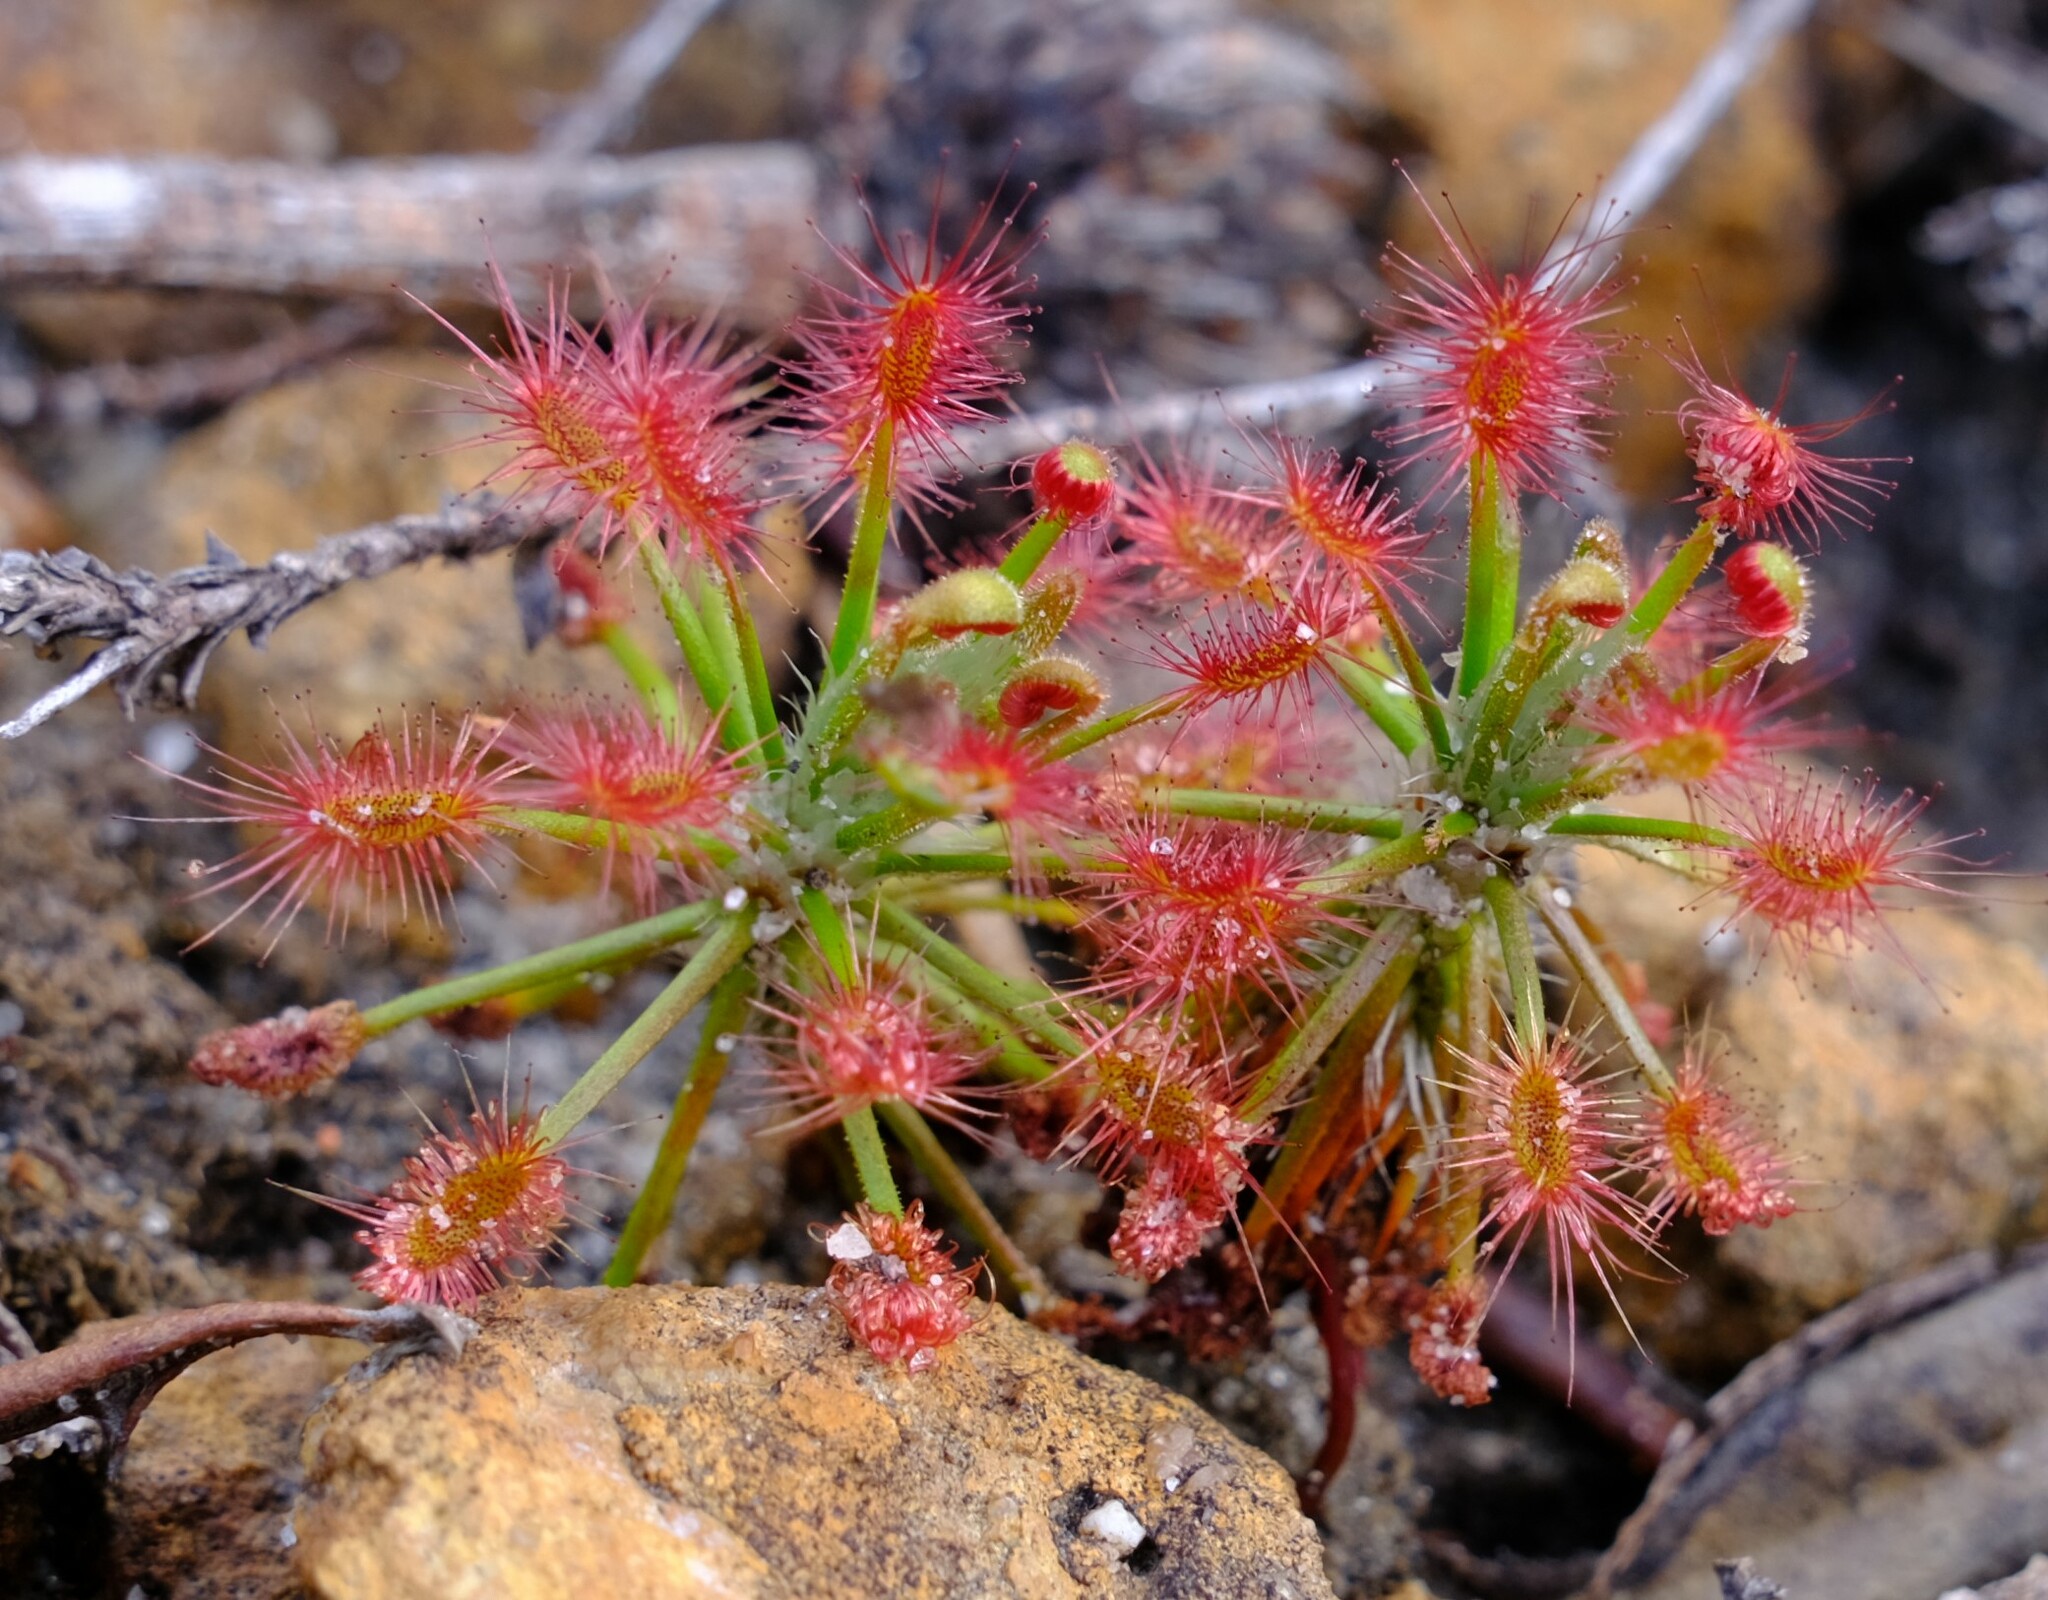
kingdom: Plantae
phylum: Tracheophyta
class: Magnoliopsida
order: Caryophyllales
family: Droseraceae
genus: Drosera
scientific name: Drosera barbigera
